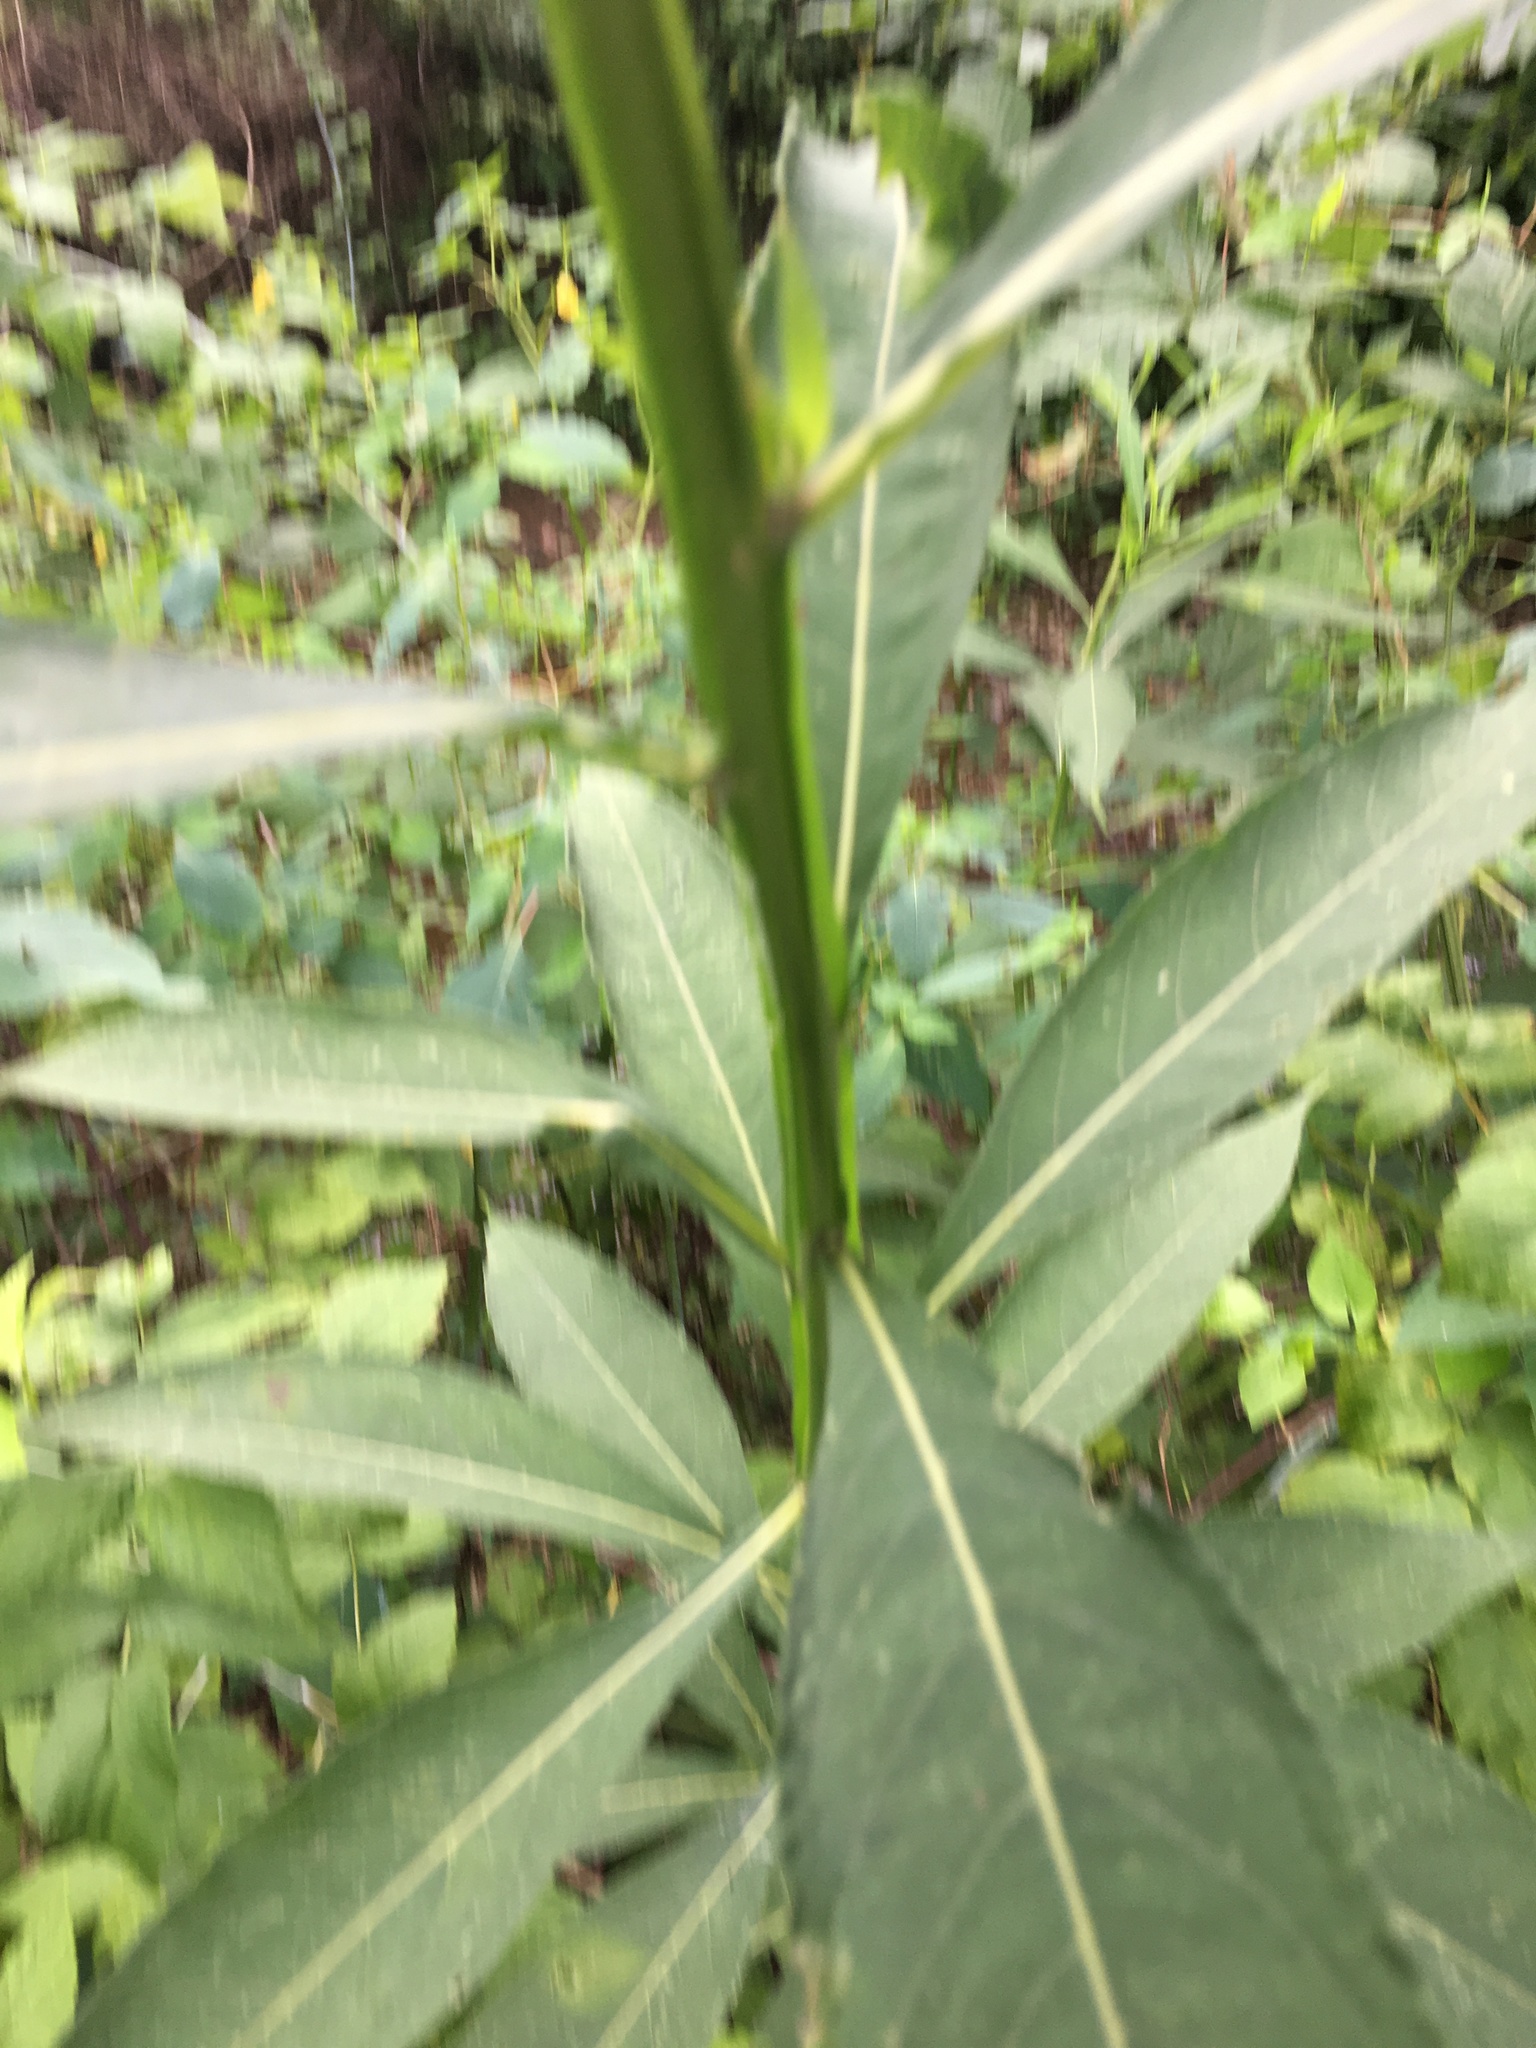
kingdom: Plantae
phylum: Tracheophyta
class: Magnoliopsida
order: Asterales
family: Asteraceae
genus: Verbesina
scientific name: Verbesina alternifolia
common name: Wingstem
